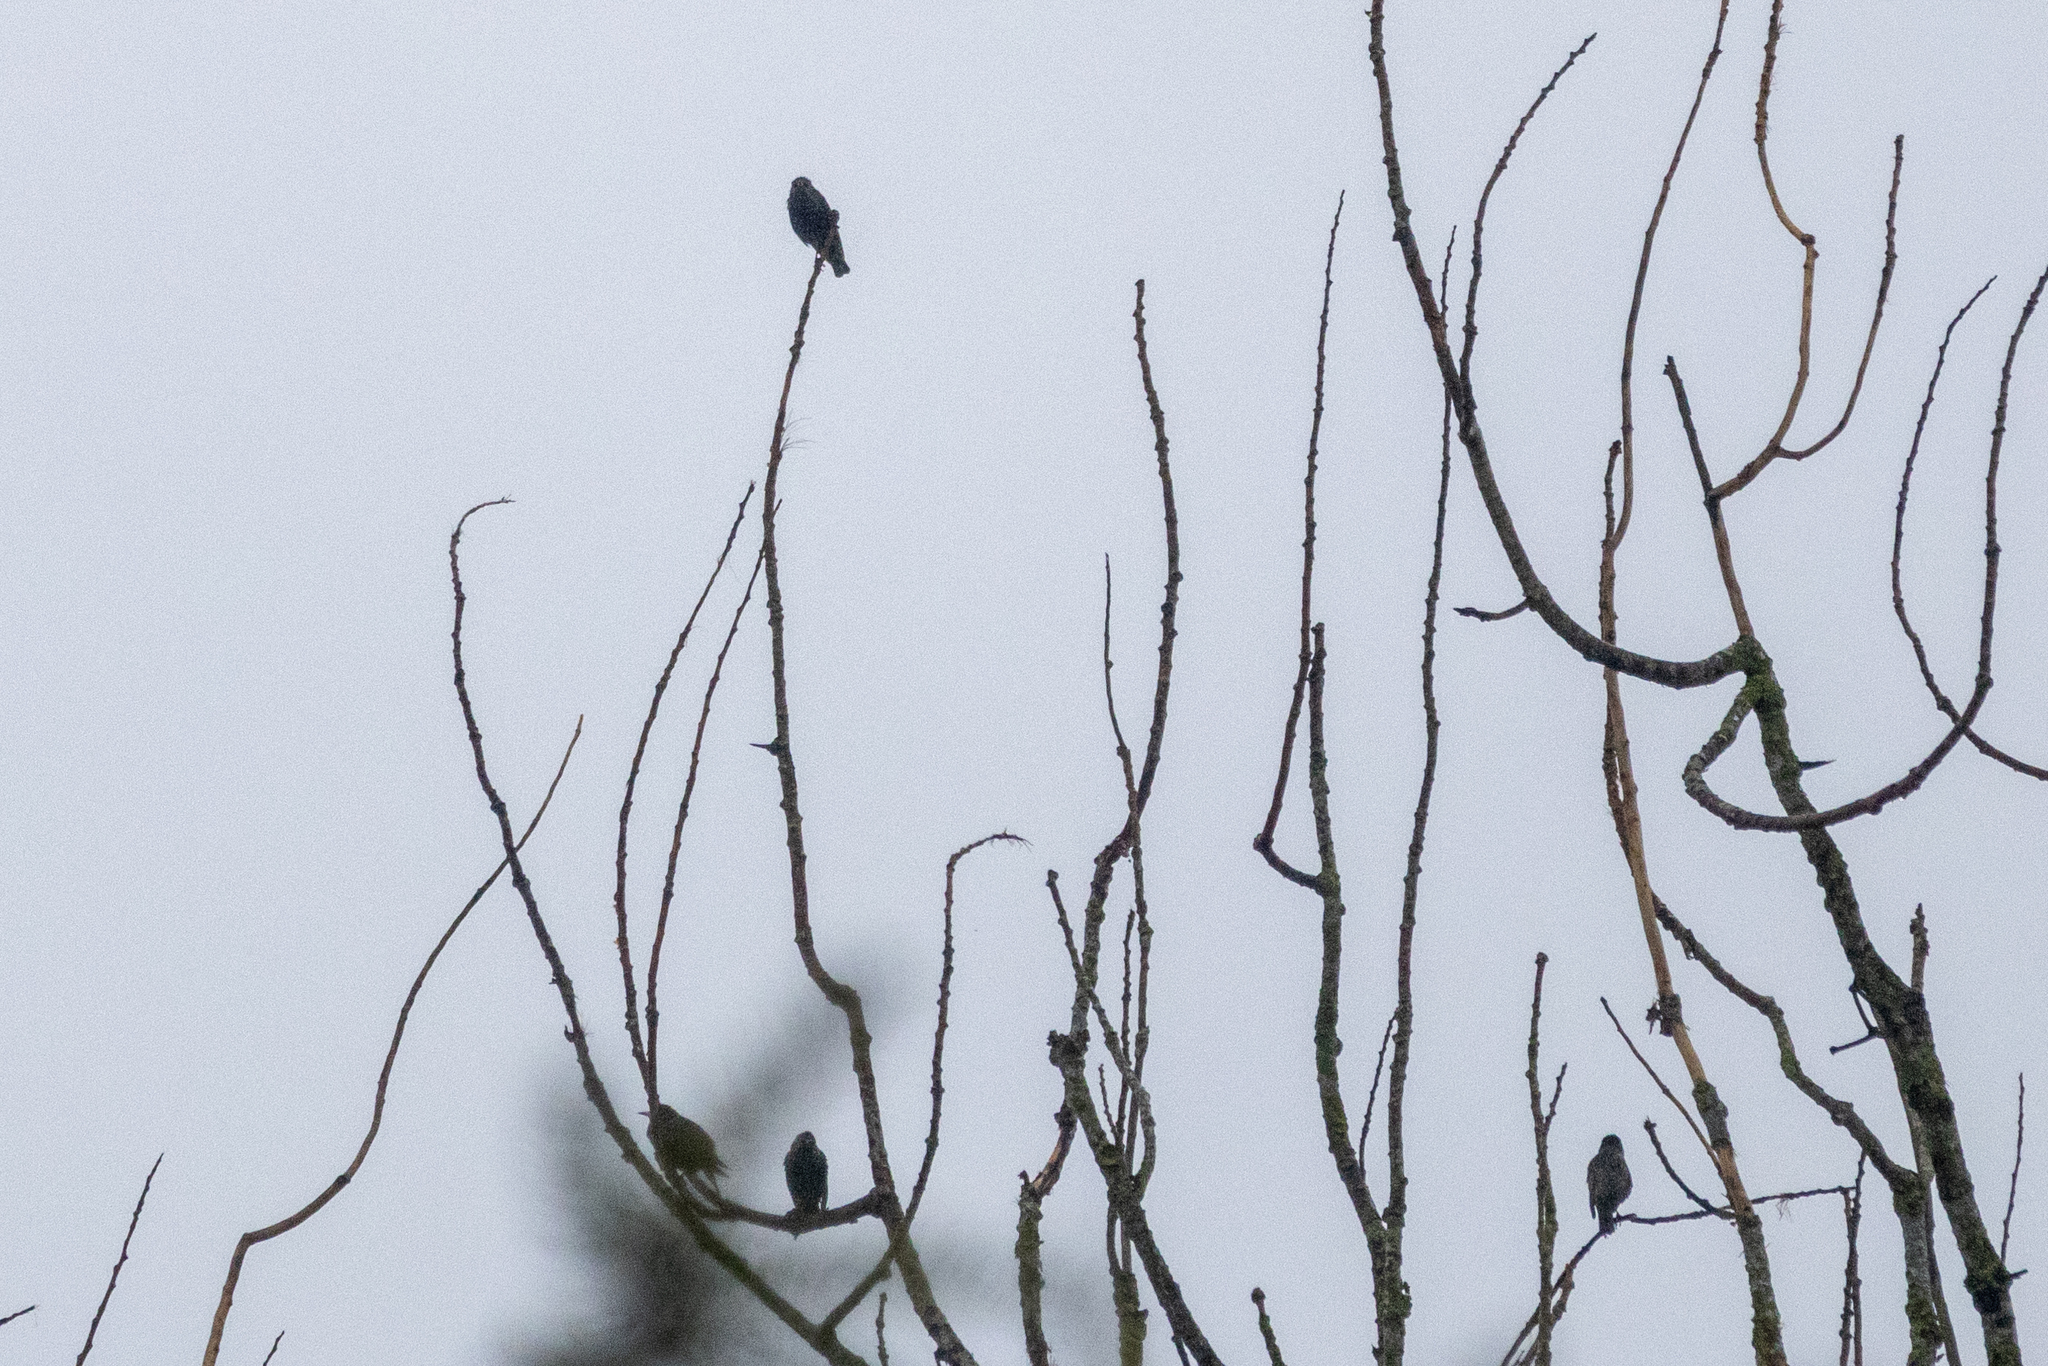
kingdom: Animalia
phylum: Chordata
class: Aves
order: Passeriformes
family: Sturnidae
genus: Sturnus
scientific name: Sturnus vulgaris
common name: Common starling
